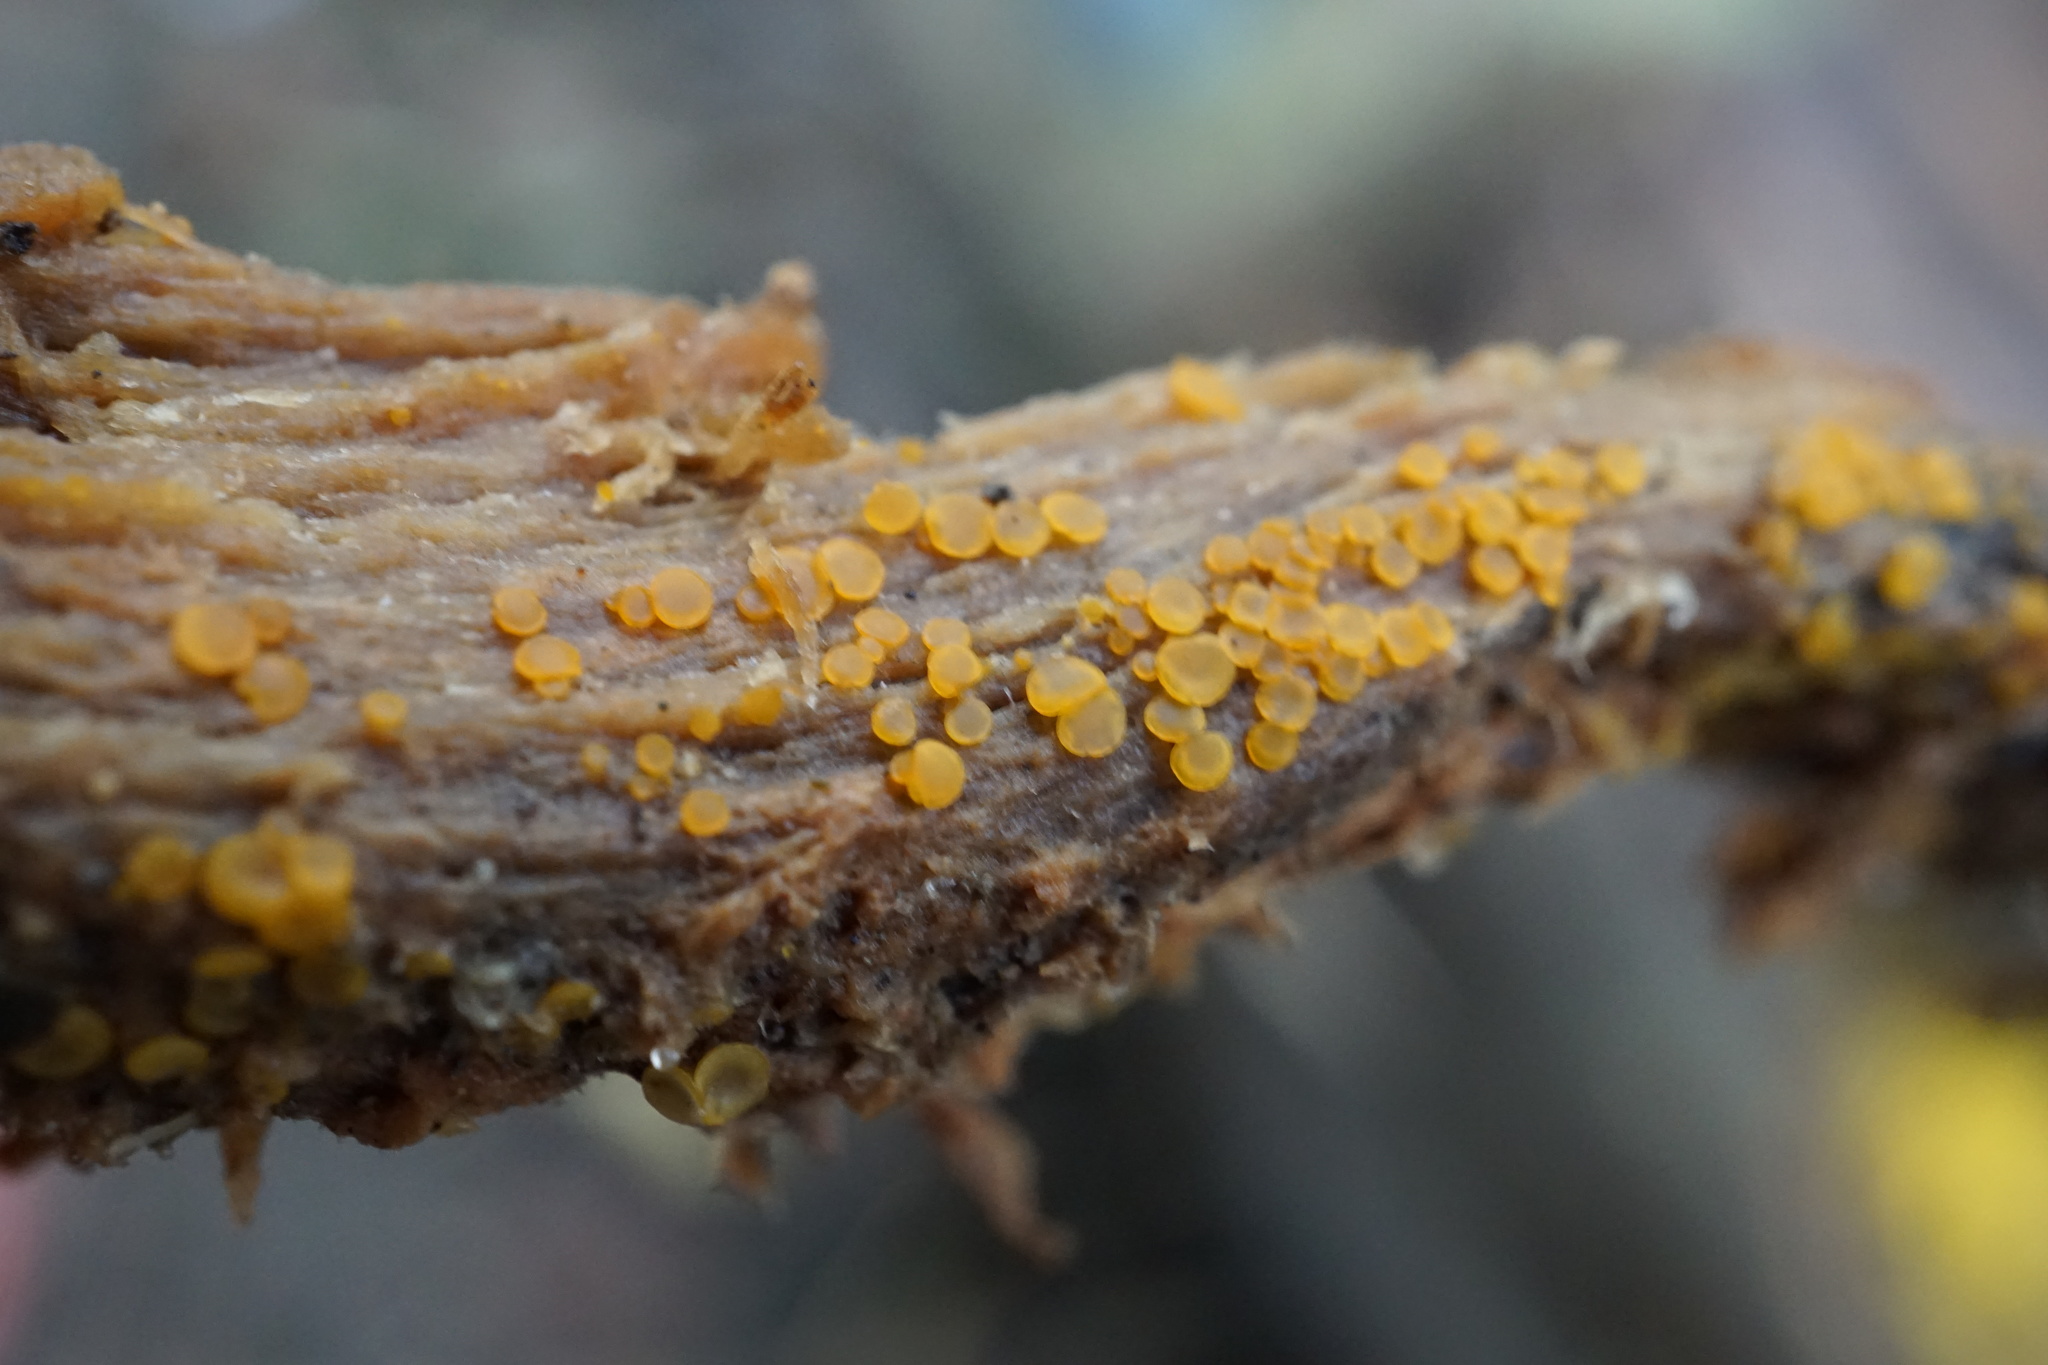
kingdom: Fungi
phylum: Ascomycota
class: Orbiliomycetes
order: Orbiliales
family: Orbiliaceae
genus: Orbilia
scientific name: Orbilia
